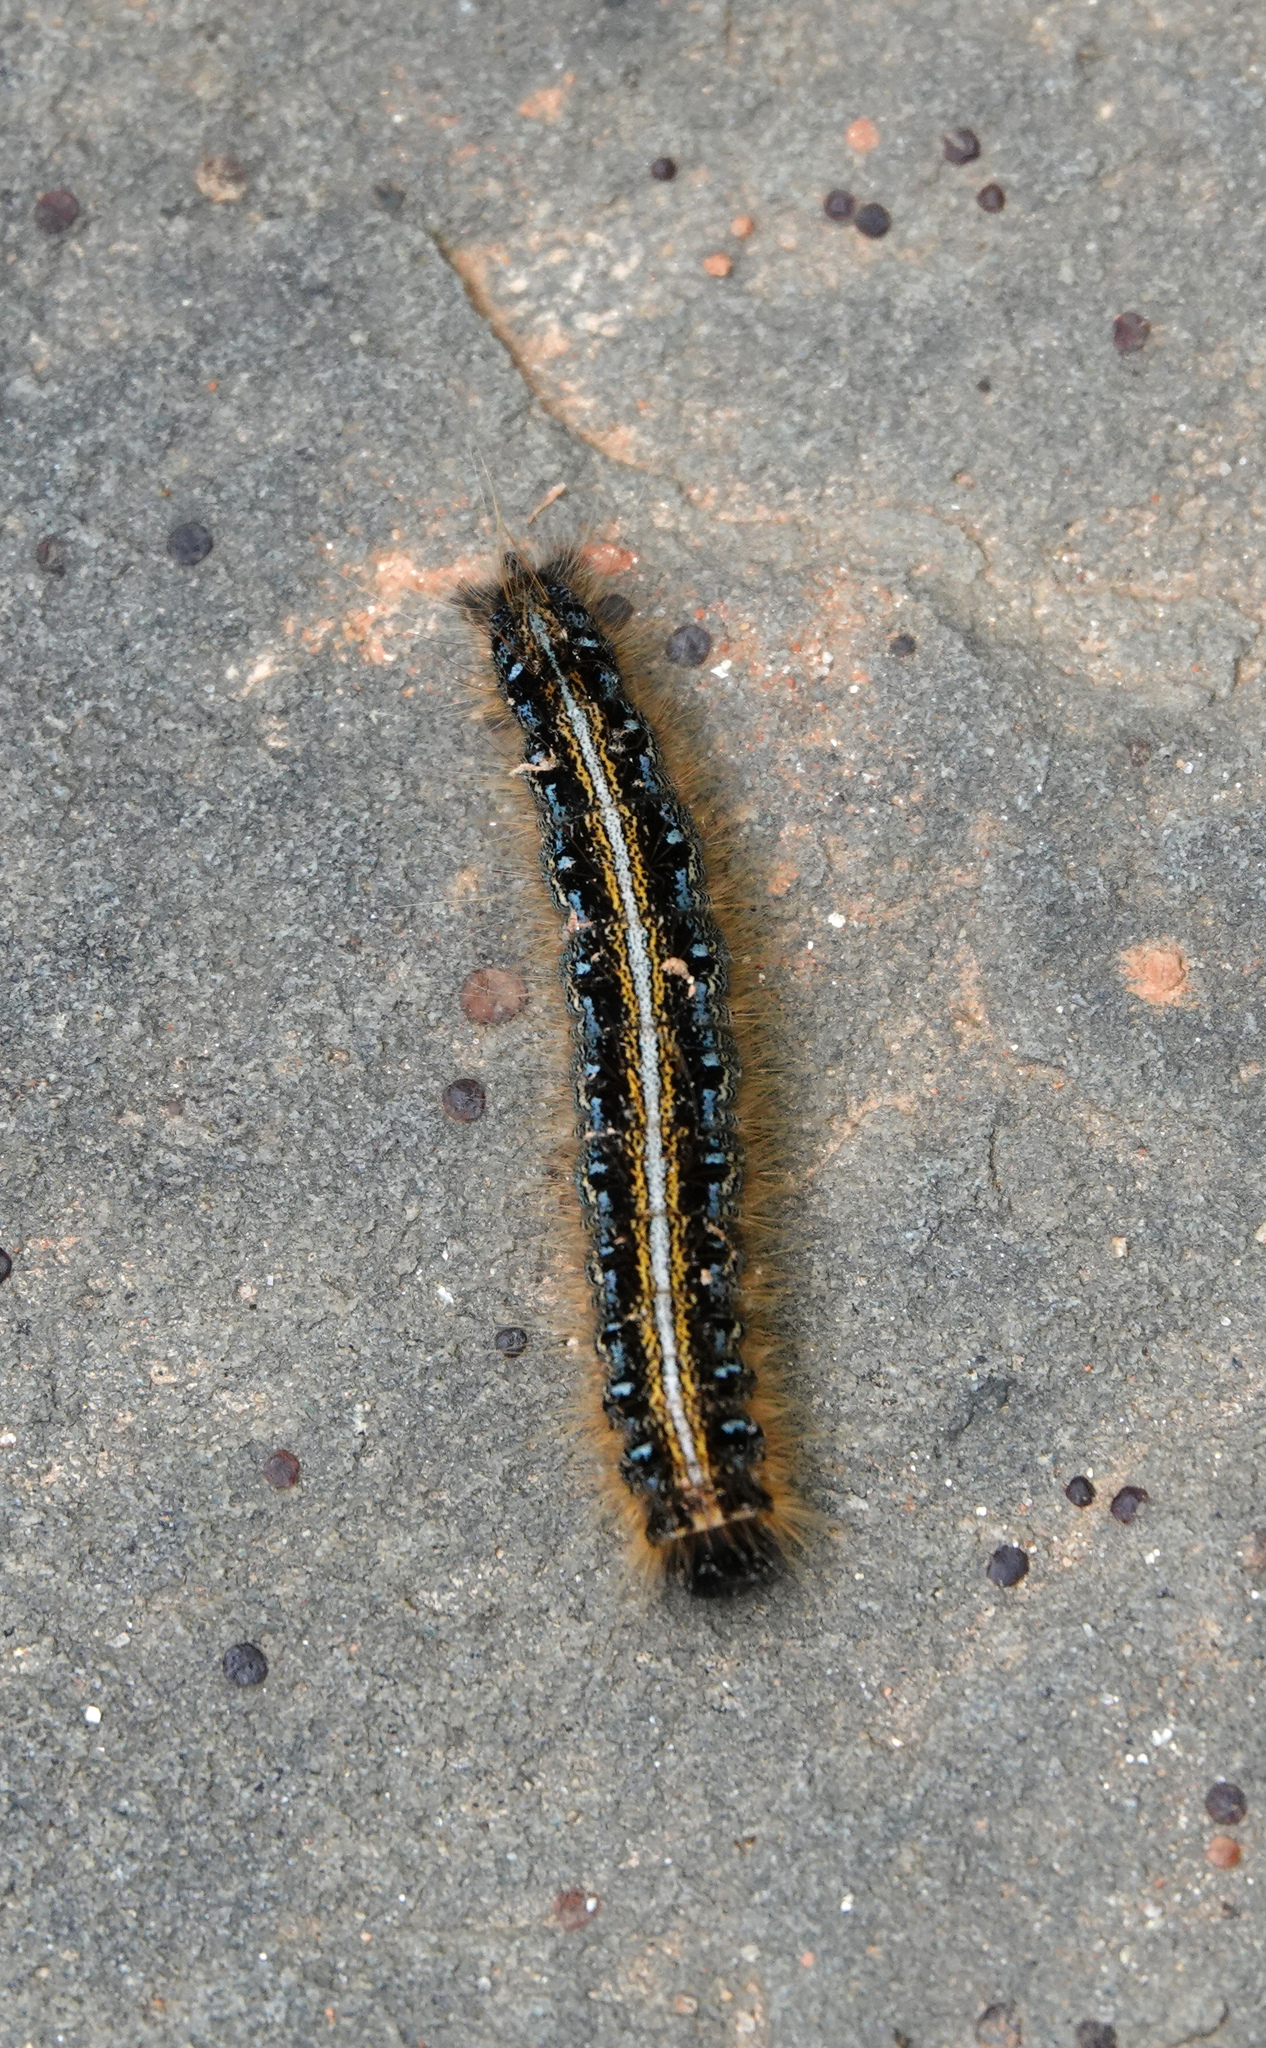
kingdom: Animalia
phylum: Arthropoda
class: Insecta
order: Lepidoptera
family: Lasiocampidae
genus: Malacosoma
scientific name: Malacosoma americana
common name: Eastern tent caterpillar moth
